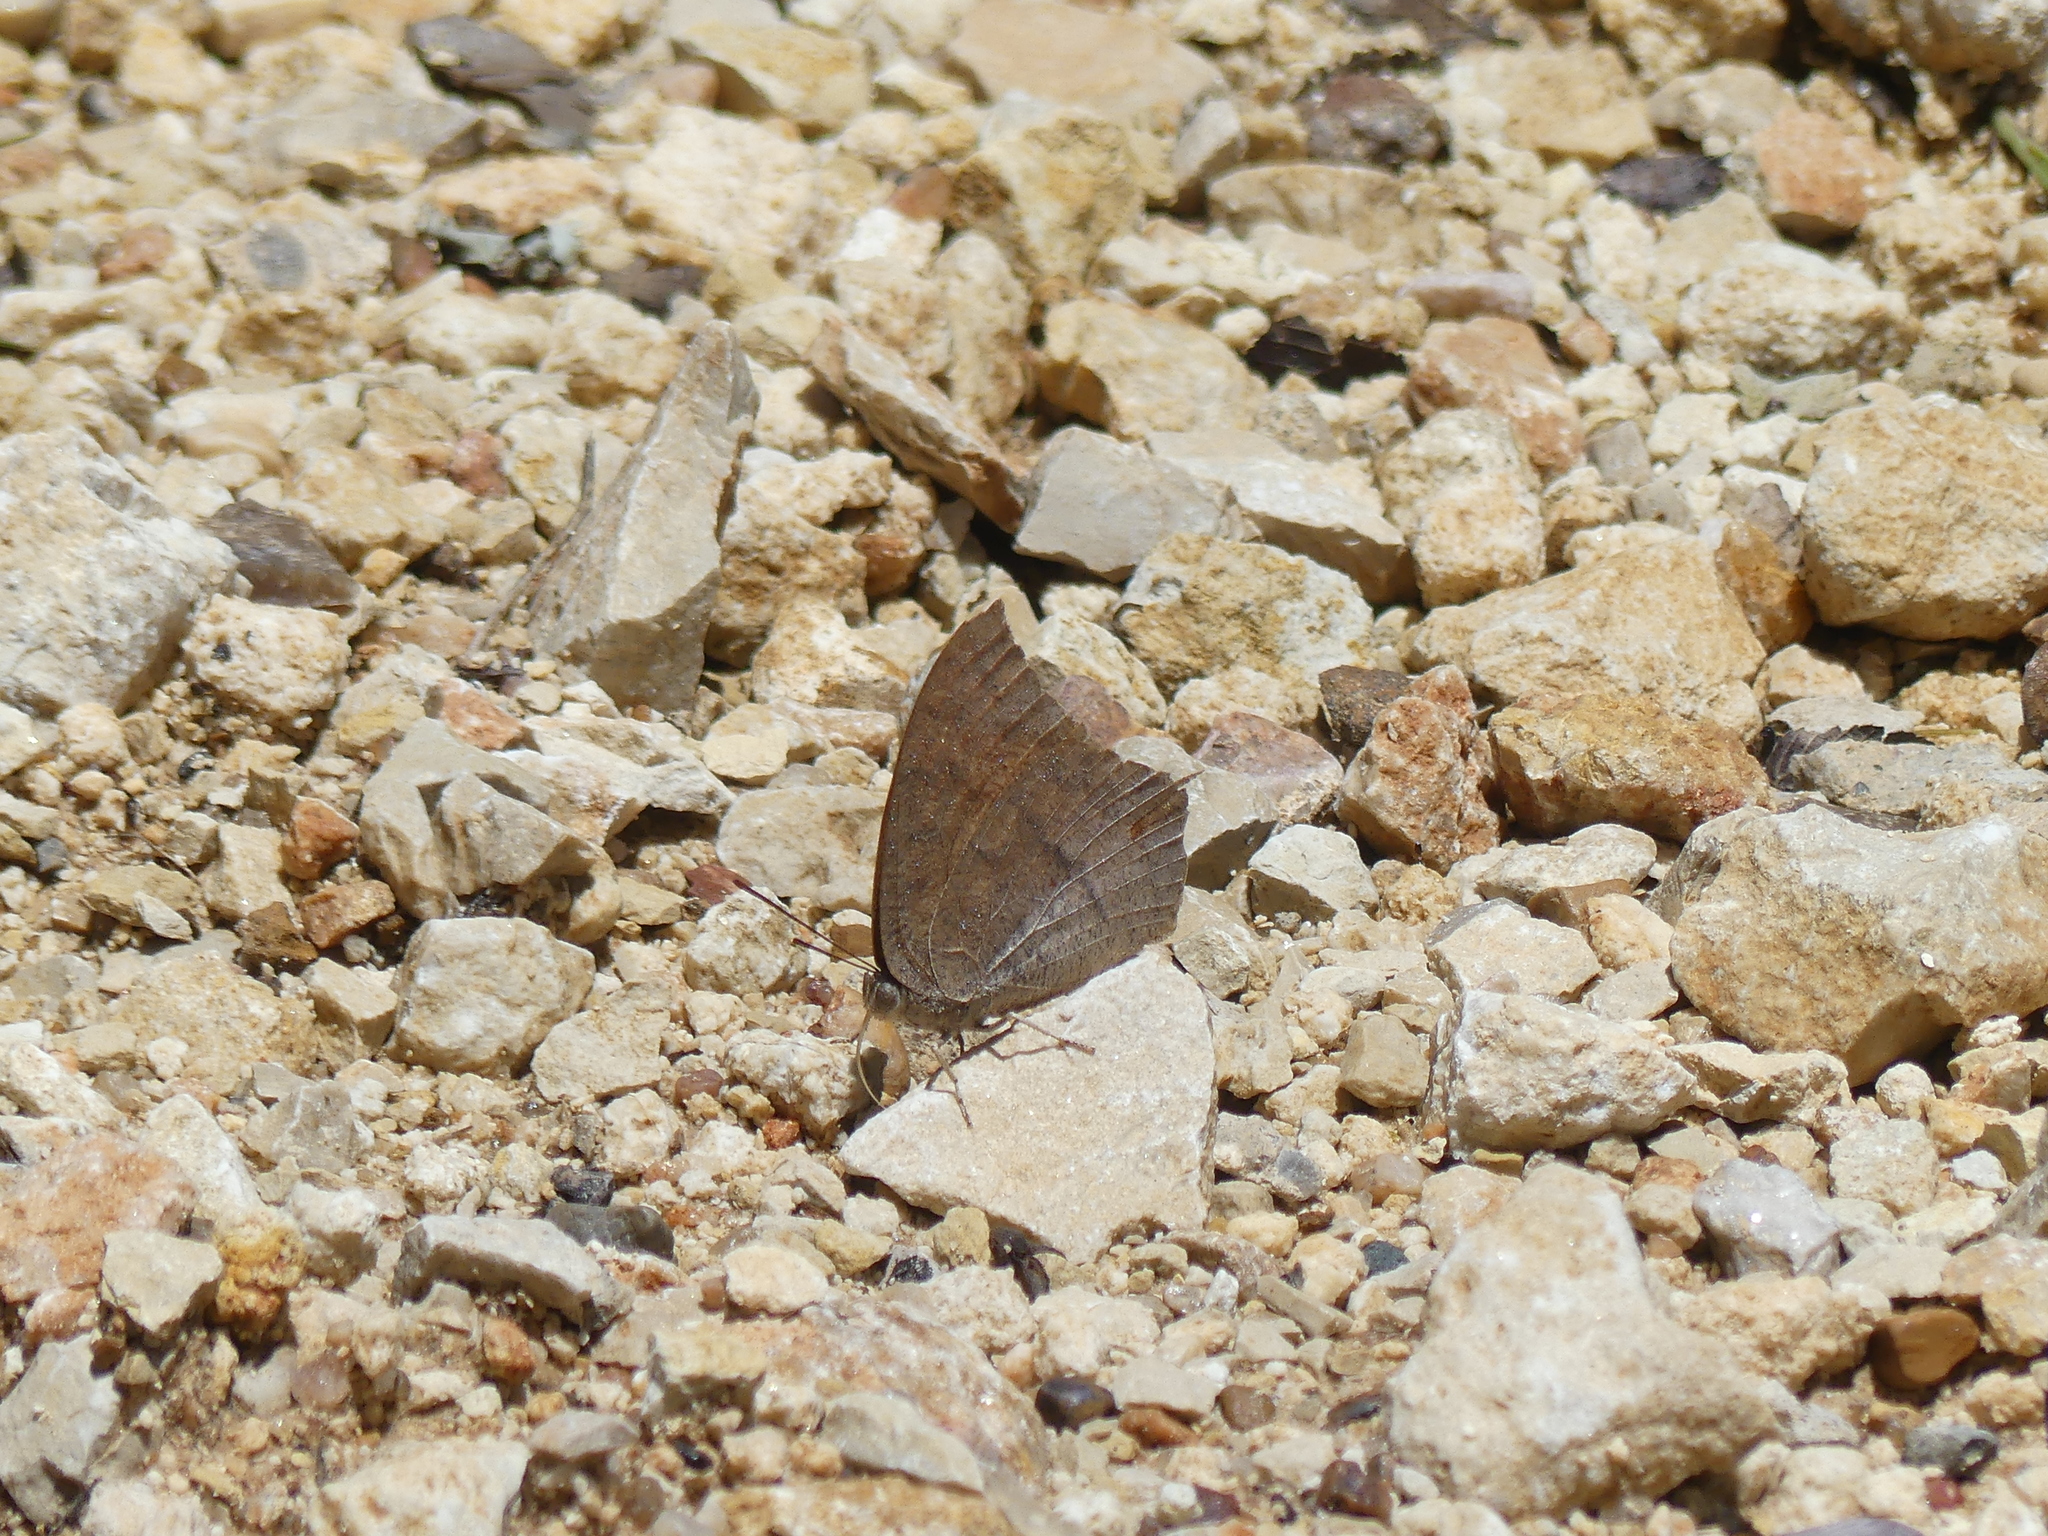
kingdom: Animalia
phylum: Arthropoda
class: Insecta
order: Lepidoptera
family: Nymphalidae
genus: Anaea
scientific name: Anaea andria
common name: Goatweed leafwing
